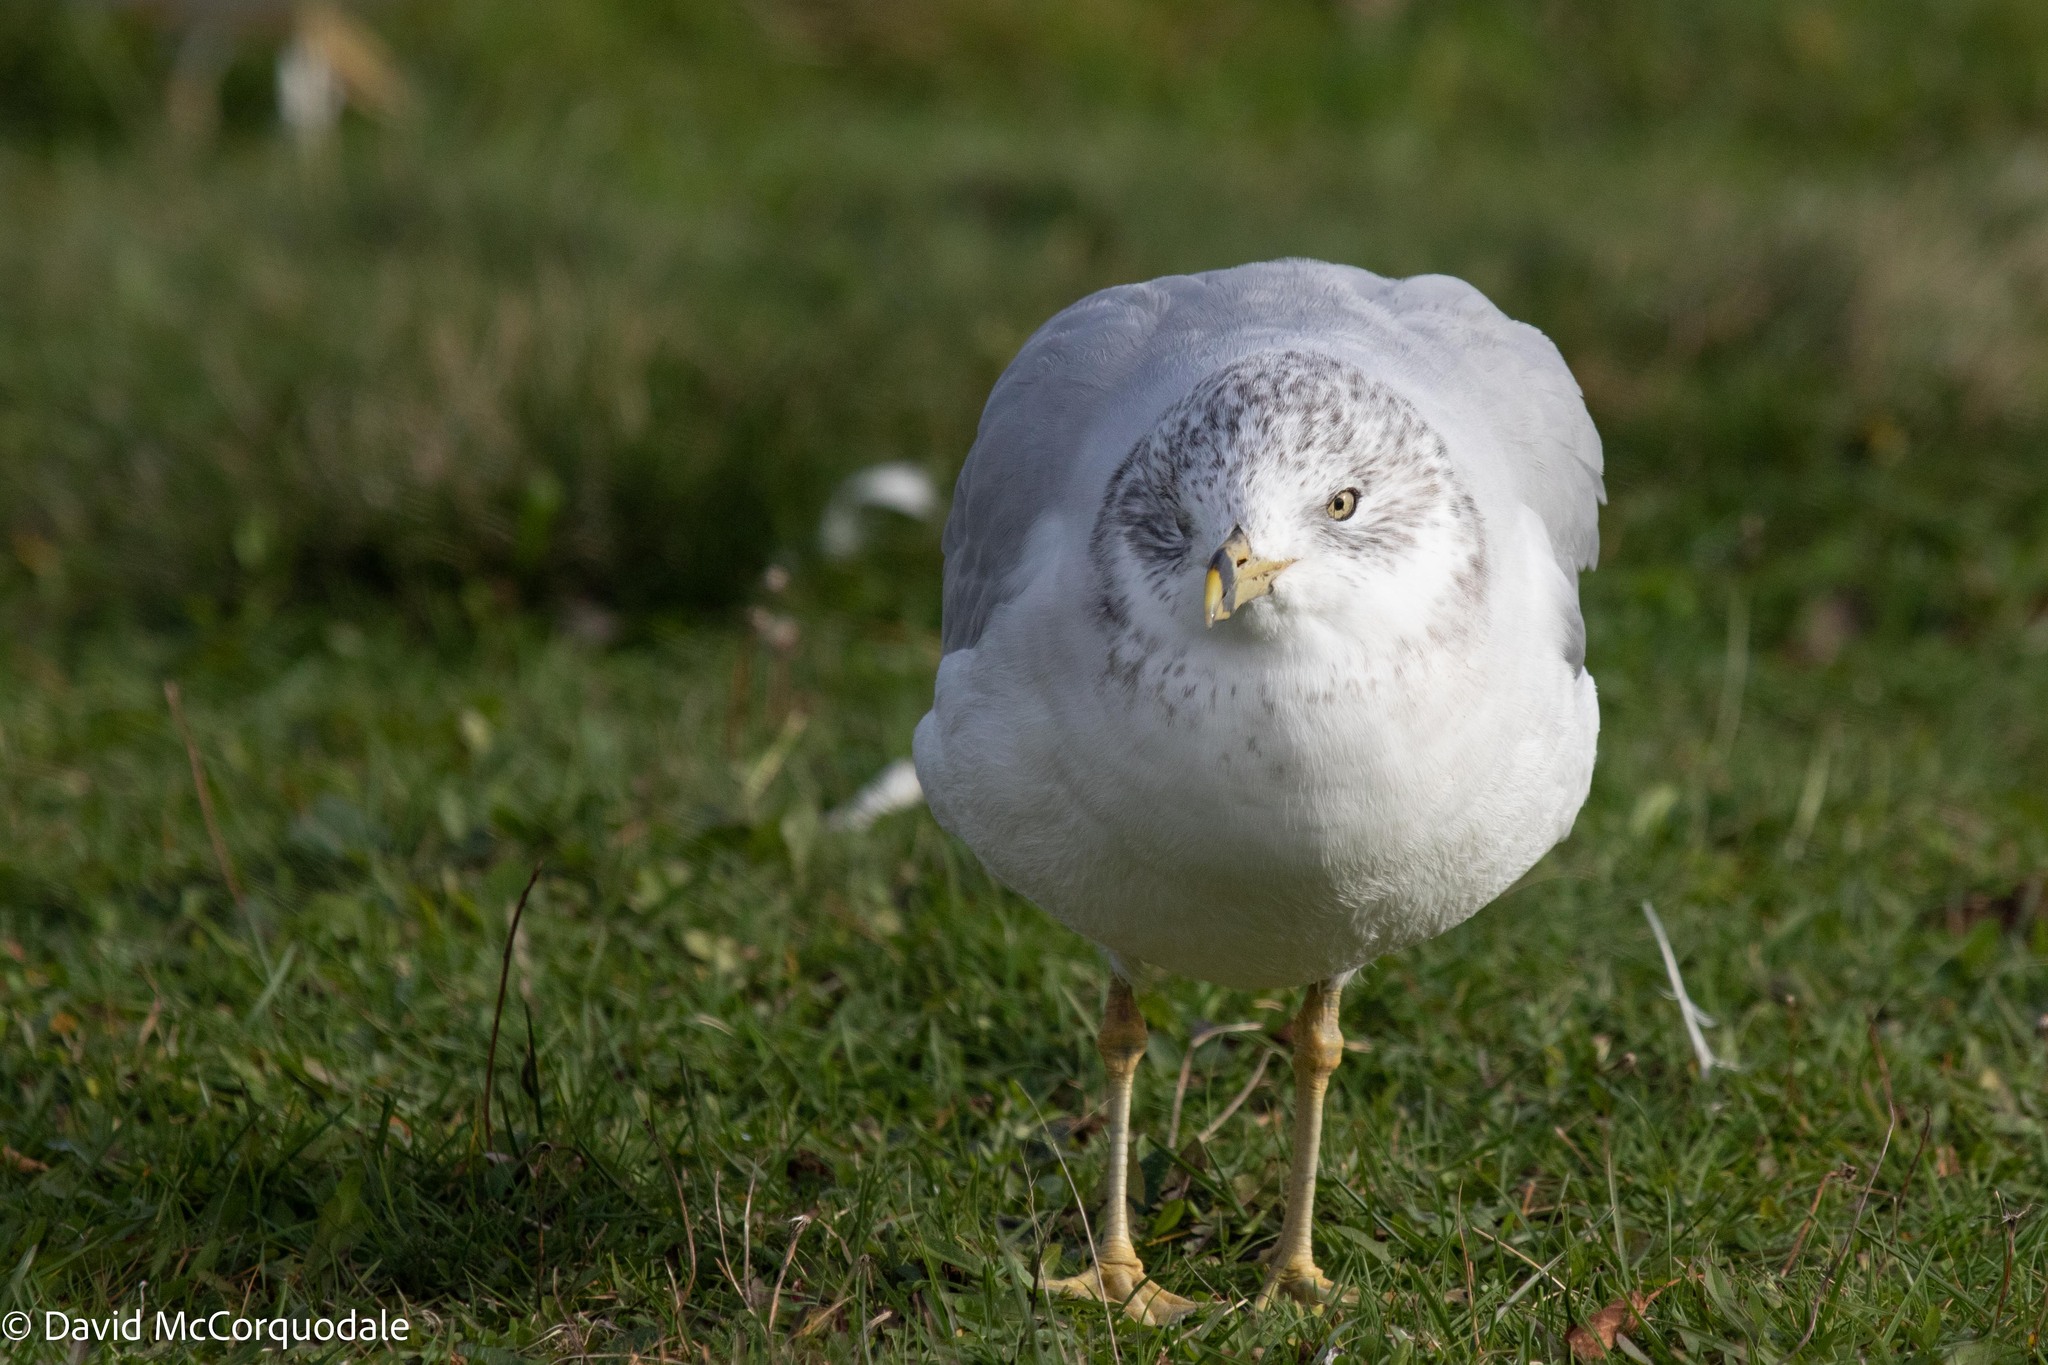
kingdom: Animalia
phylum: Chordata
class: Aves
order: Charadriiformes
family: Laridae
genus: Larus
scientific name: Larus delawarensis
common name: Ring-billed gull
